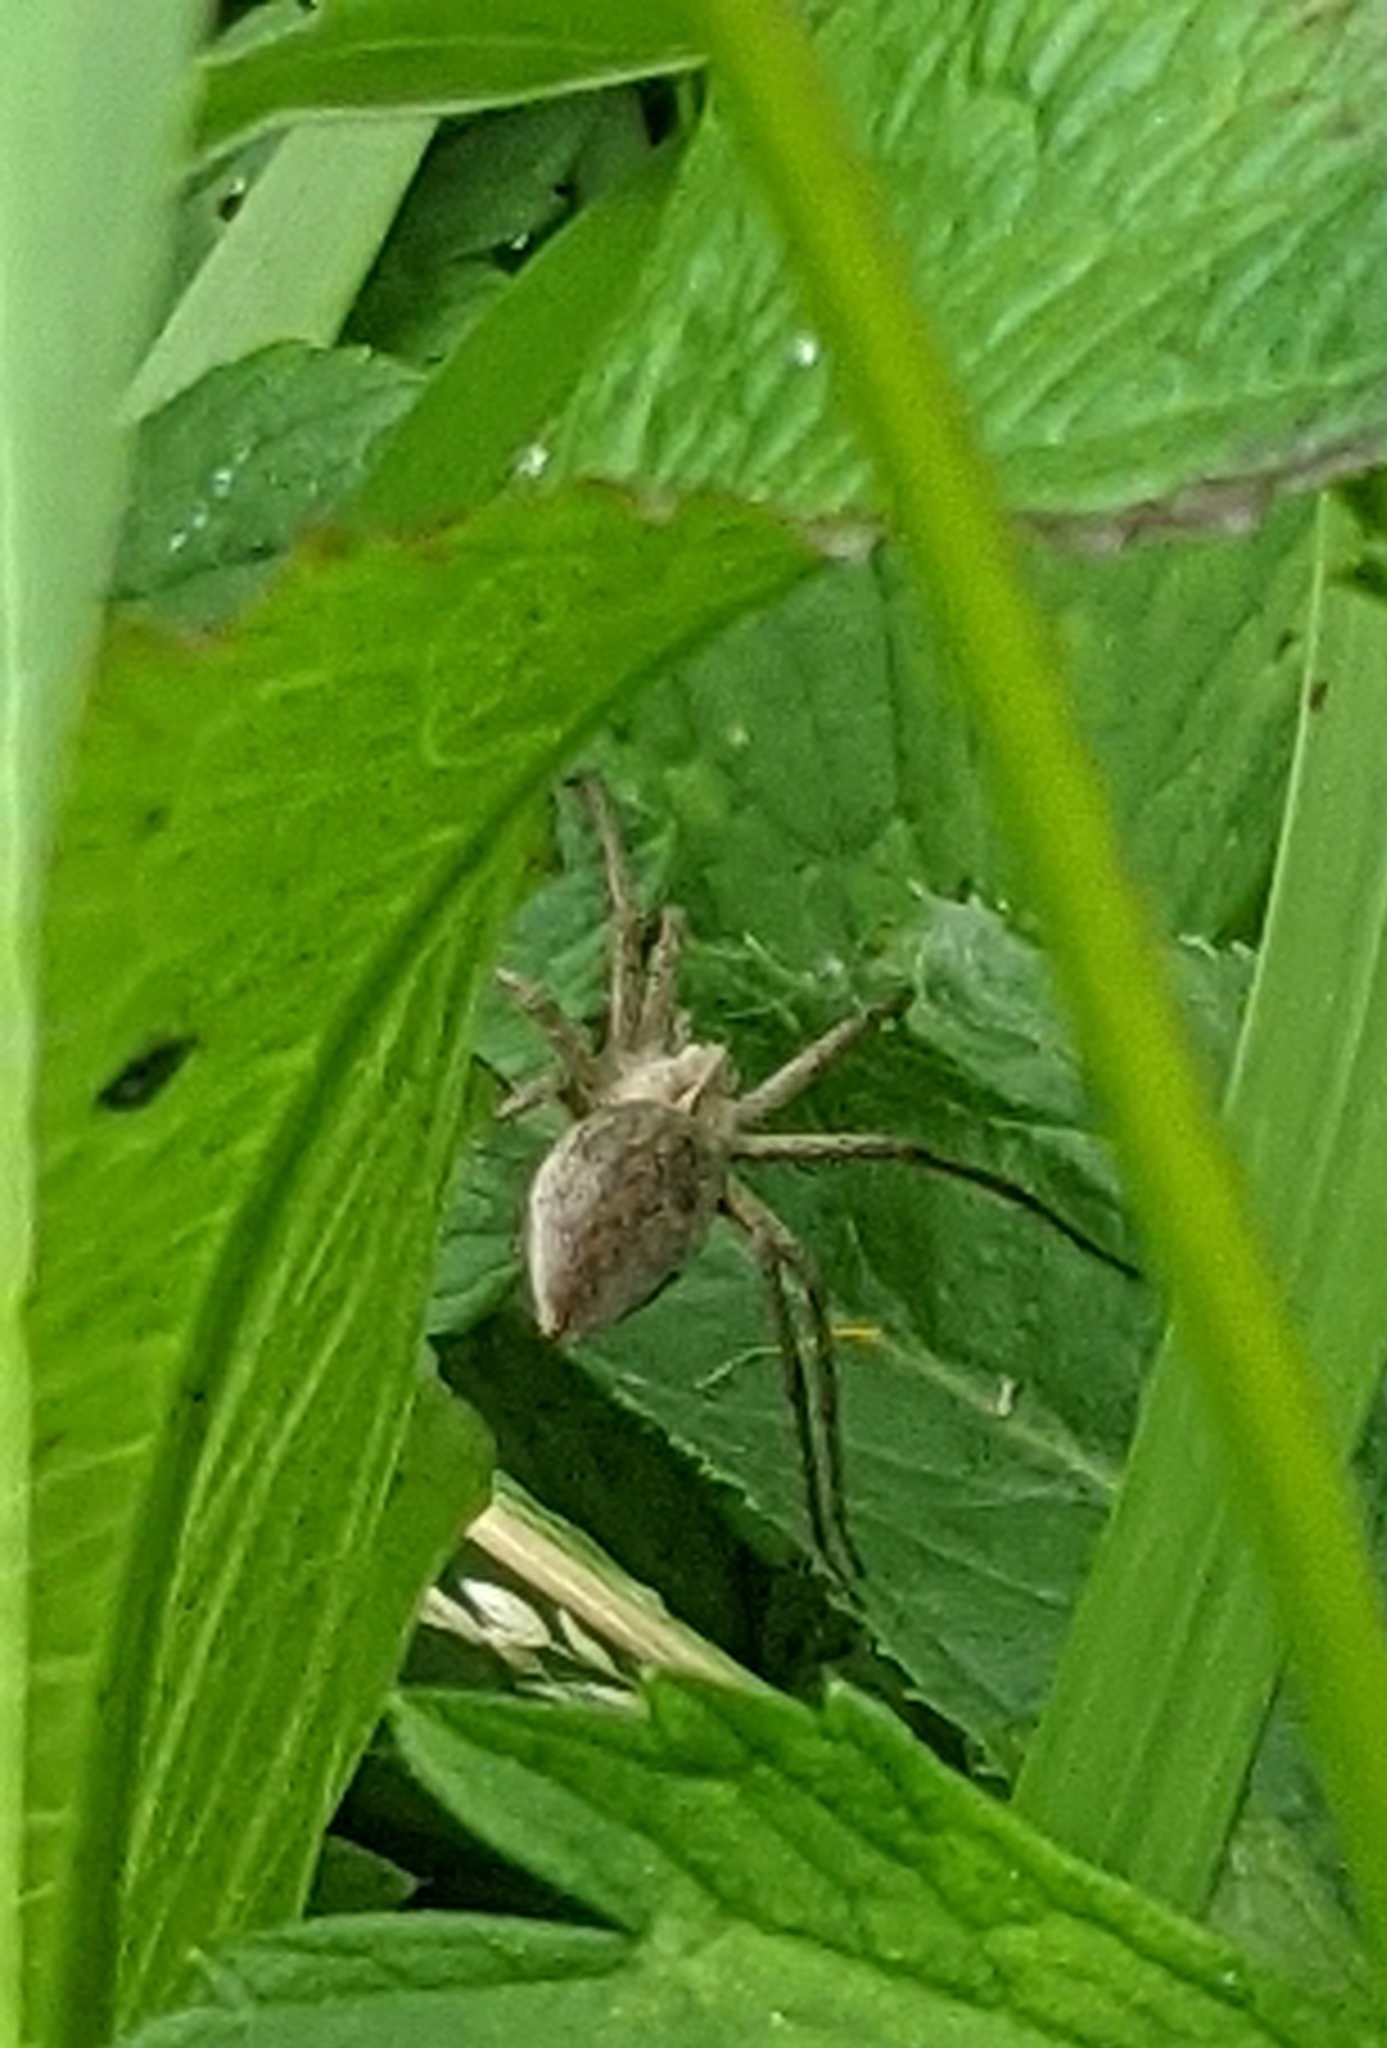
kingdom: Animalia
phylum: Arthropoda
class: Arachnida
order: Araneae
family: Pisauridae
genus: Pisaura
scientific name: Pisaura mirabilis
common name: Tent spider
